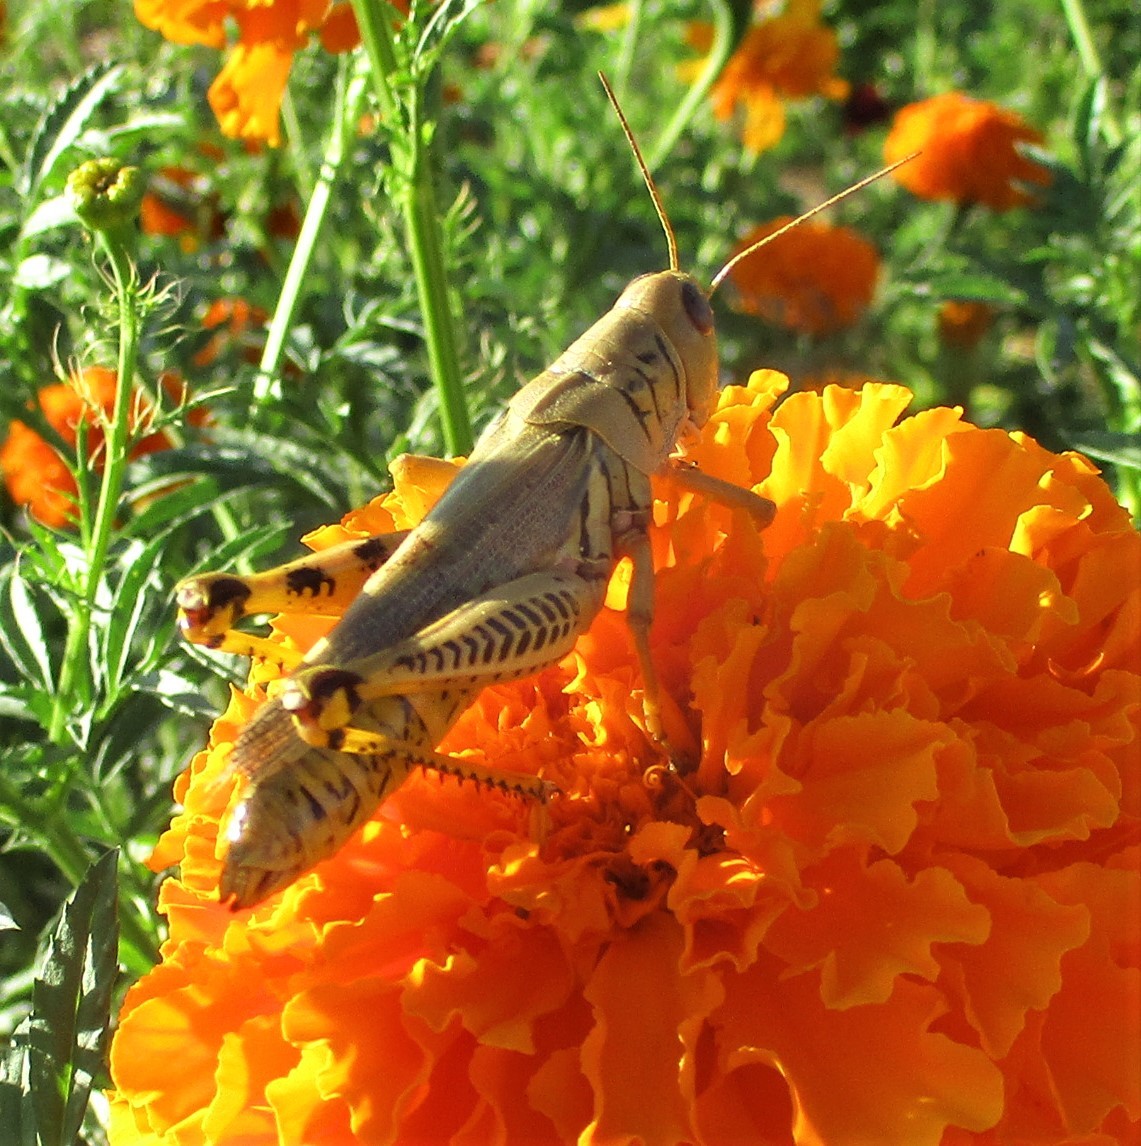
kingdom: Animalia
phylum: Arthropoda
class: Insecta
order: Orthoptera
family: Acrididae
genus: Melanoplus
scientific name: Melanoplus differentialis
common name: Differential grasshopper
